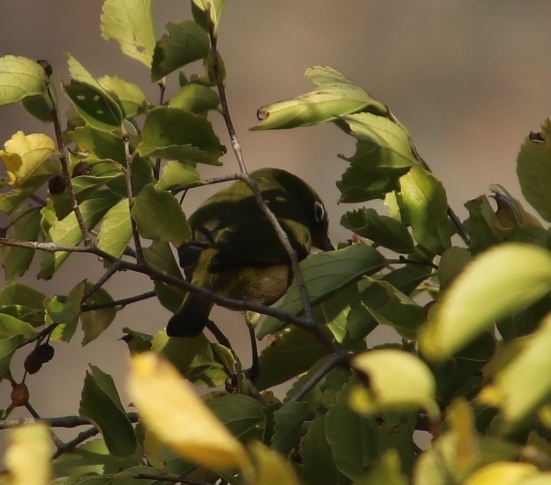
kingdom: Animalia
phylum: Chordata
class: Aves
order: Passeriformes
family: Zosteropidae
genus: Zosterops
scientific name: Zosterops virens
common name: Cape white-eye
